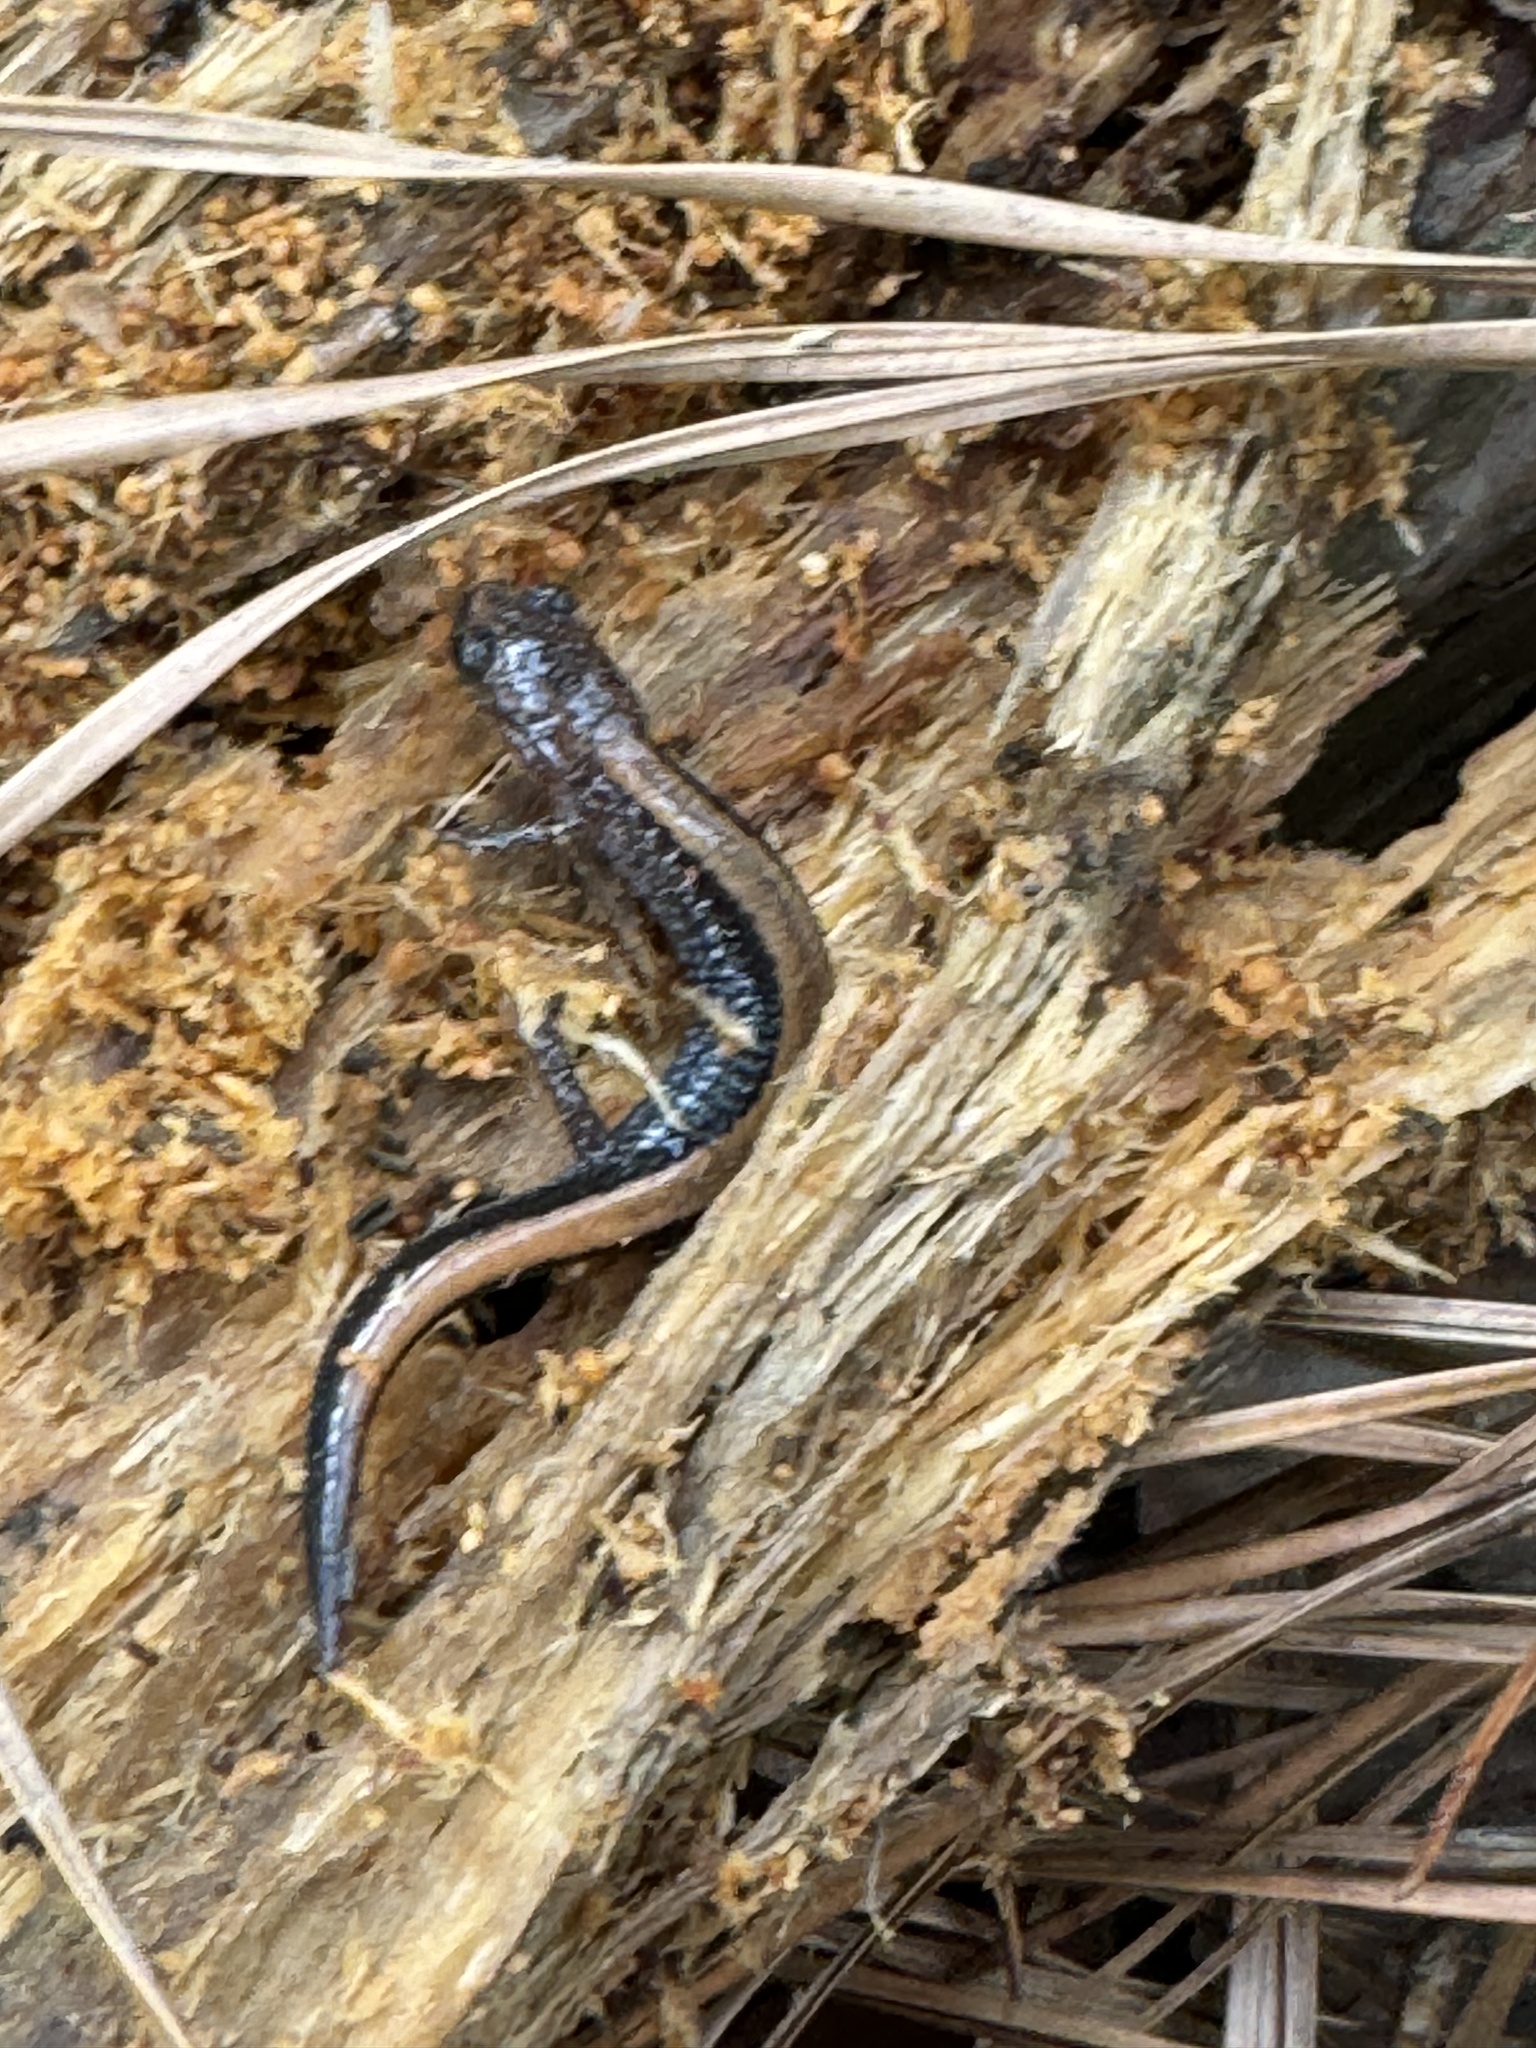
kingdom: Animalia
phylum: Chordata
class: Amphibia
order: Caudata
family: Plethodontidae
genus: Plethodon
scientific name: Plethodon cinereus
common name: Redback salamander
